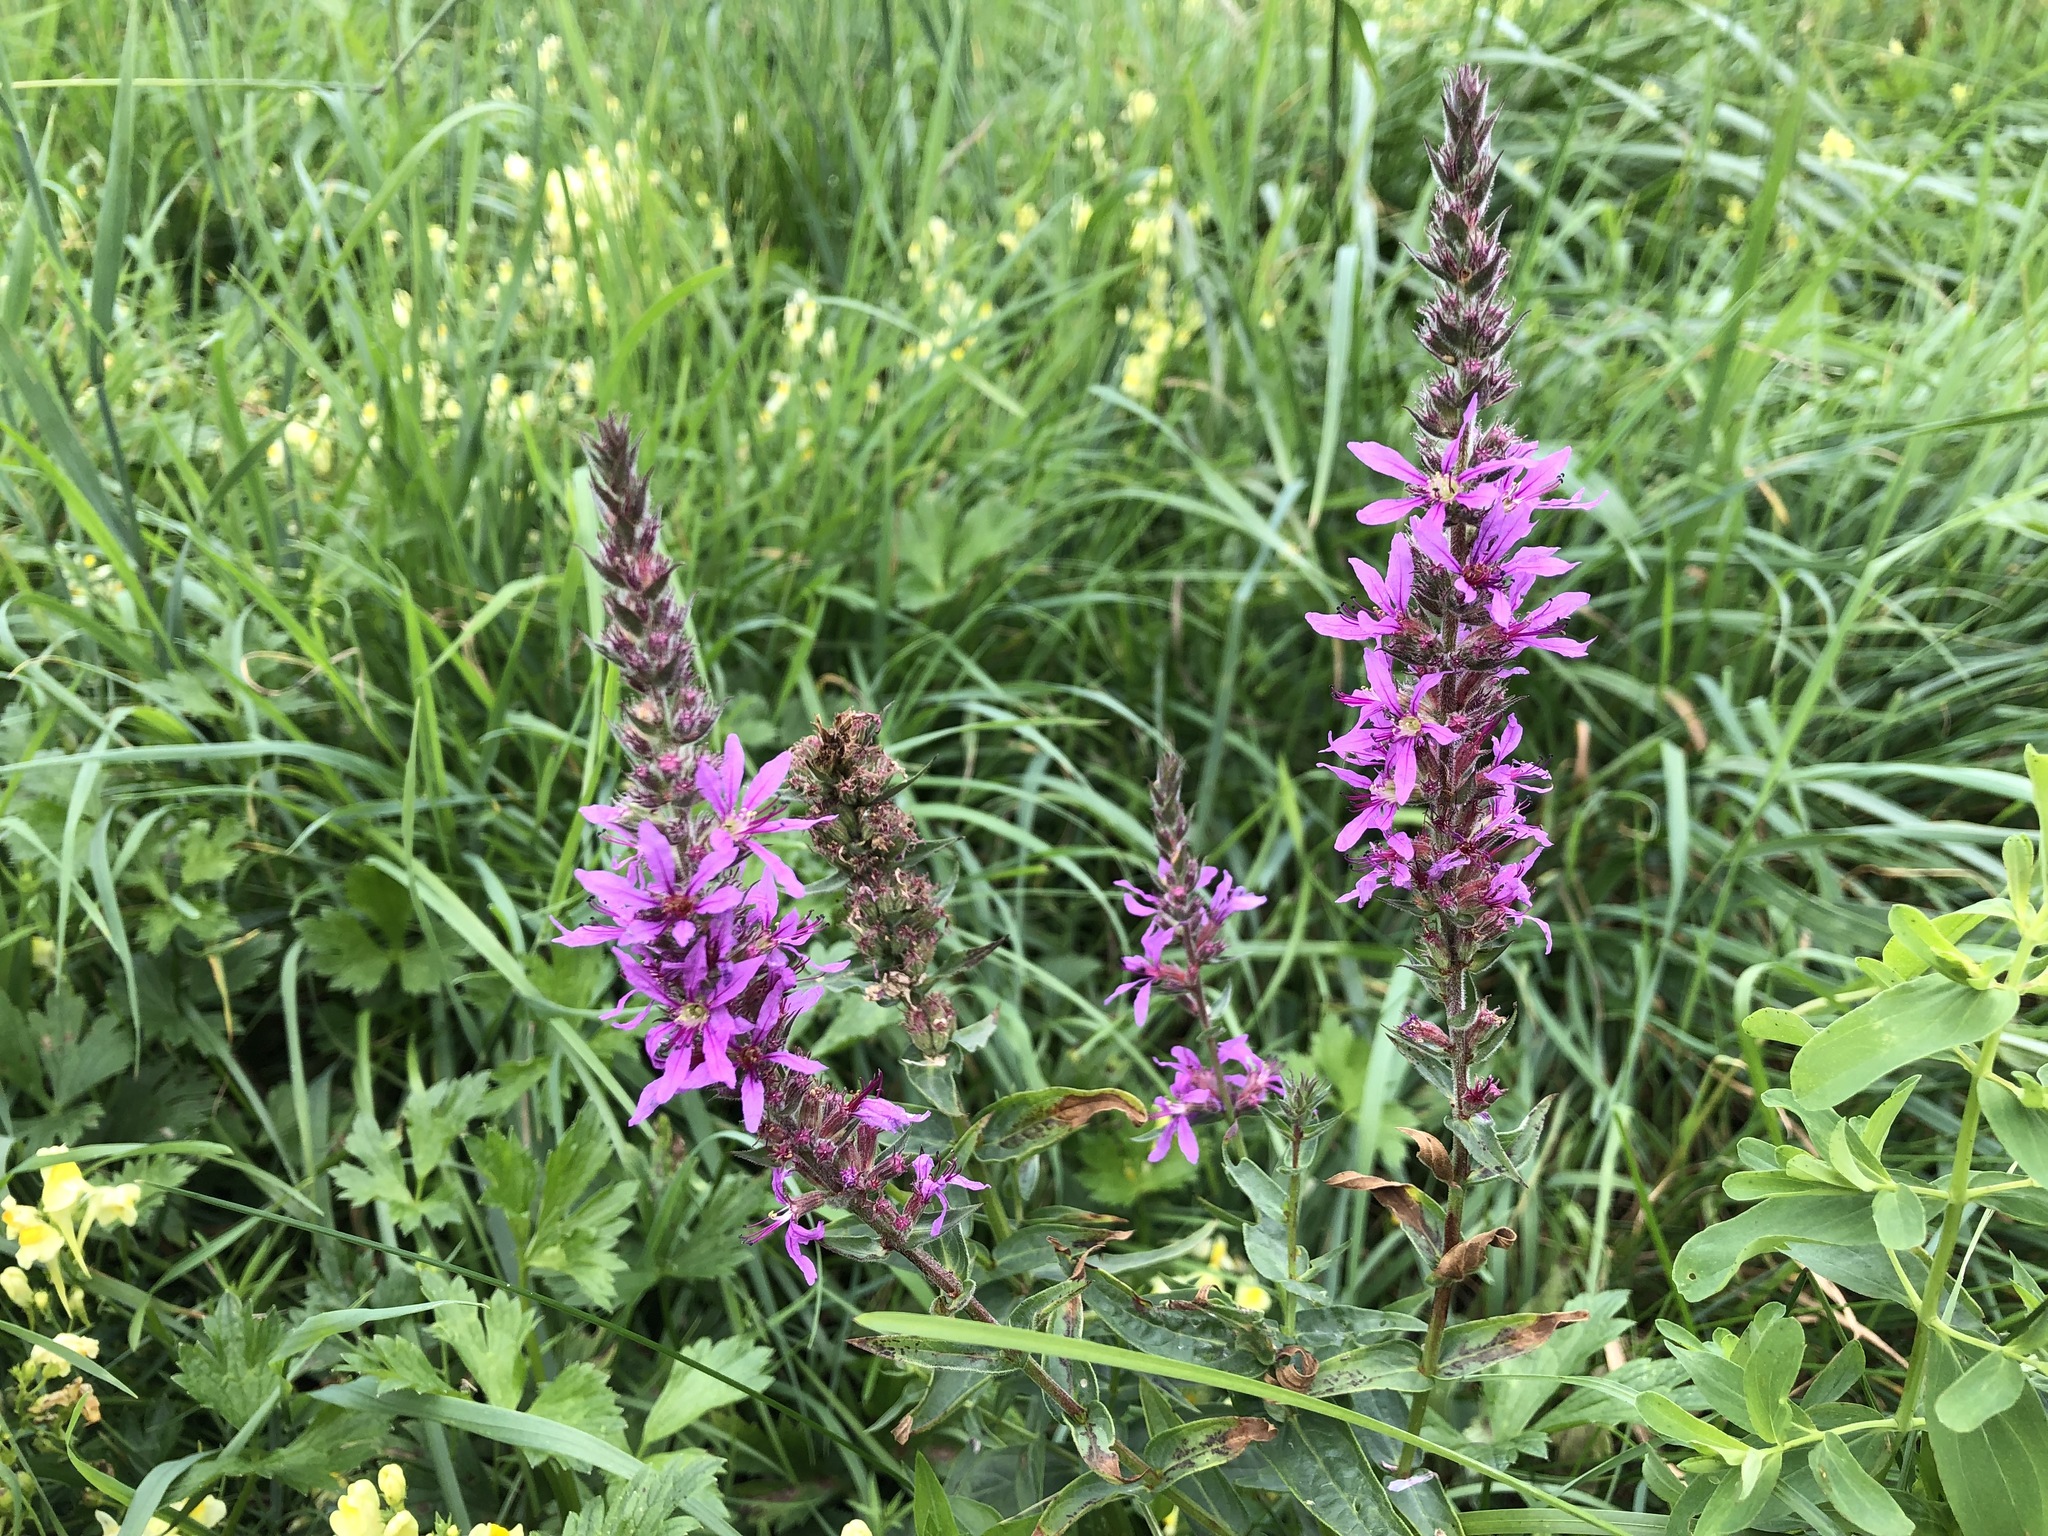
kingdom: Plantae
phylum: Tracheophyta
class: Magnoliopsida
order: Myrtales
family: Lythraceae
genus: Lythrum
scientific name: Lythrum salicaria
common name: Purple loosestrife
